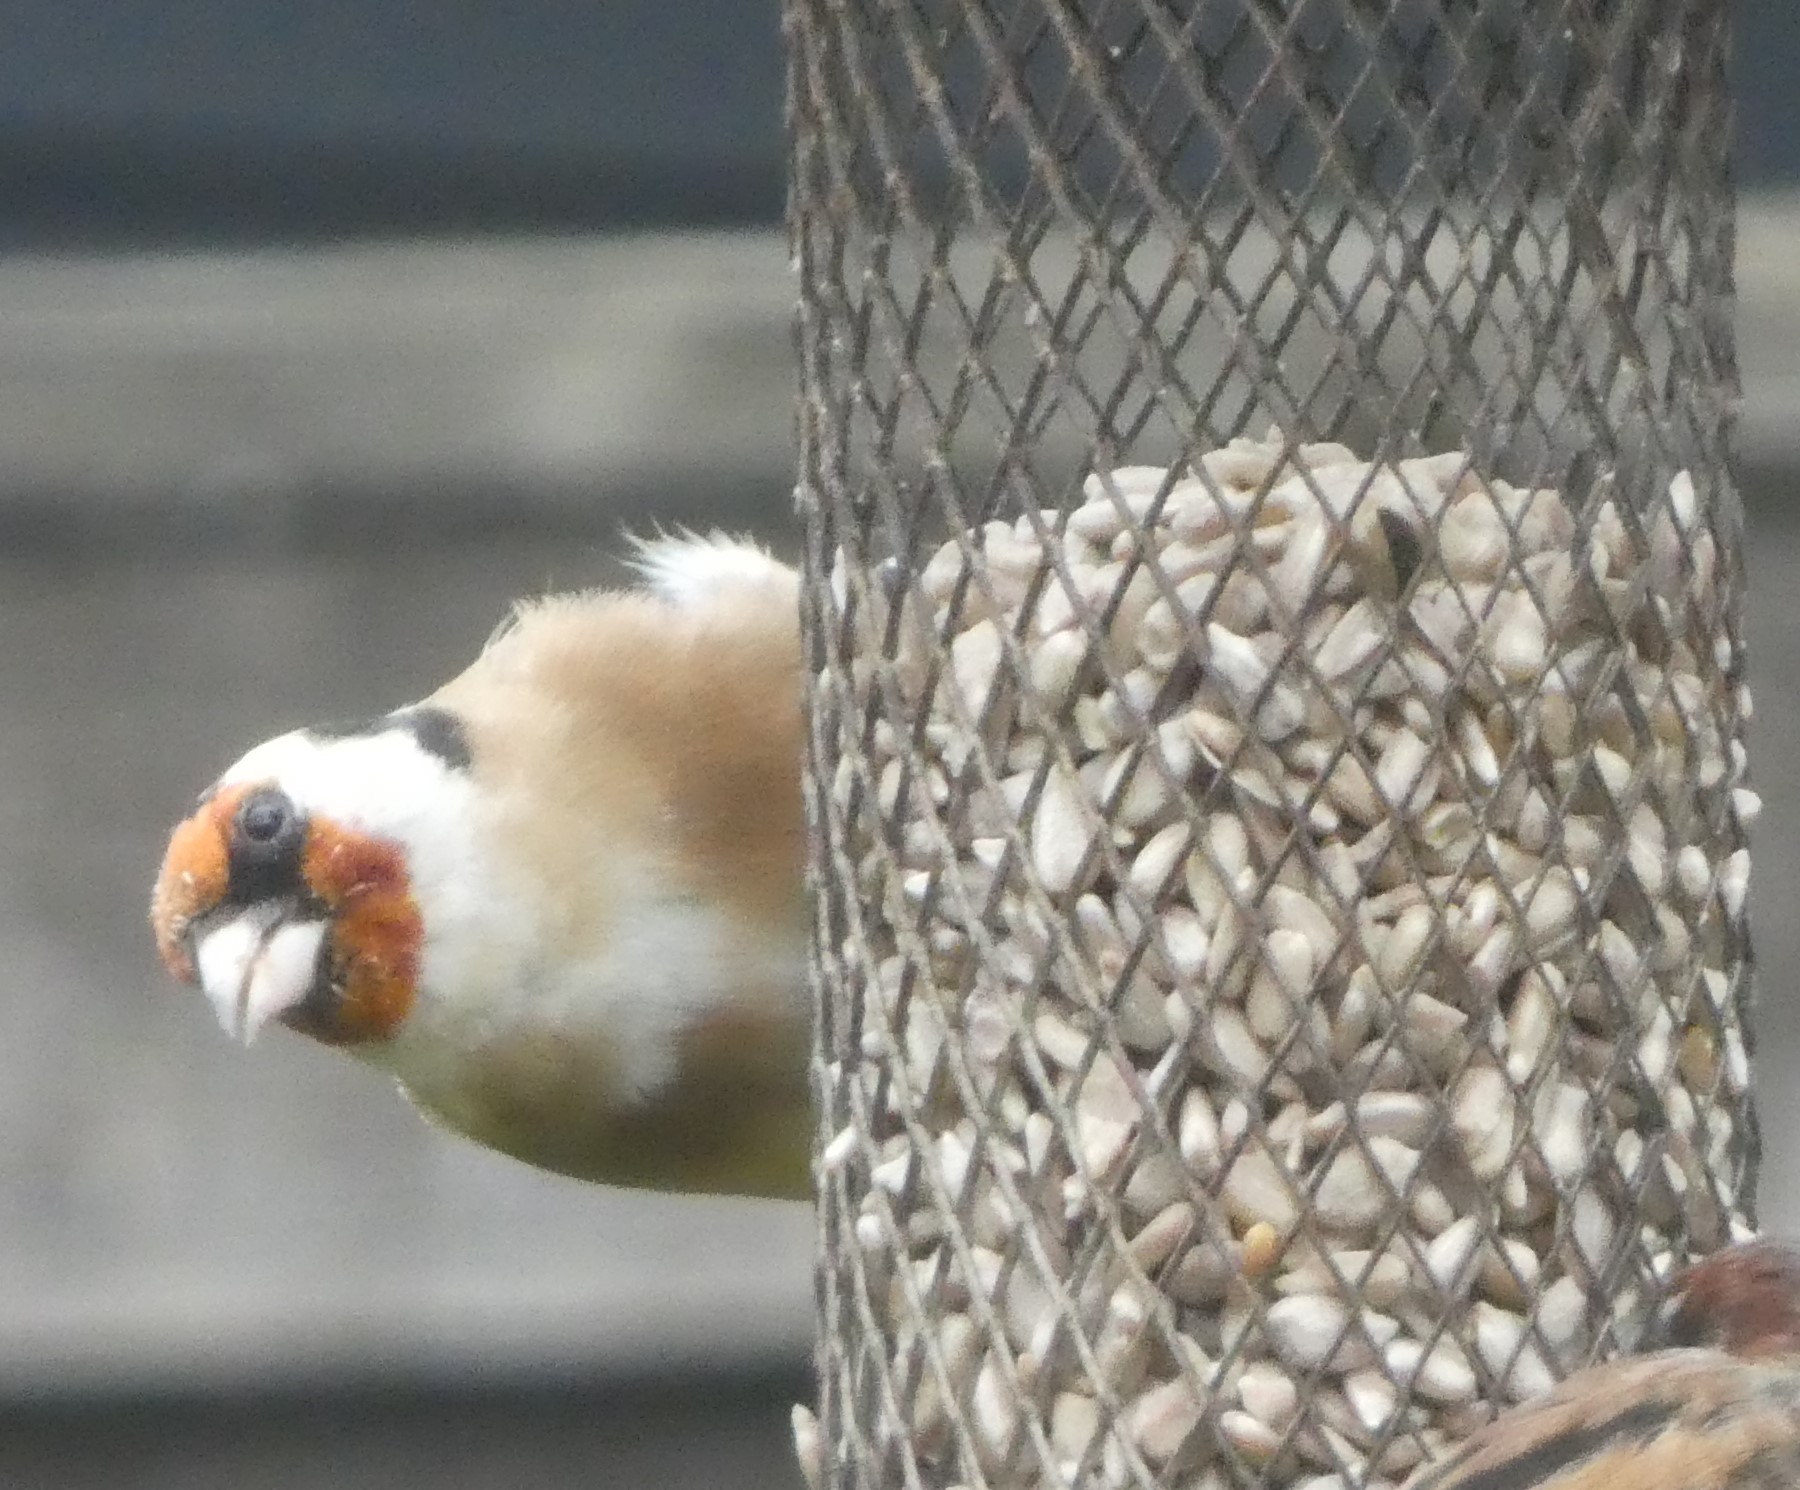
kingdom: Animalia
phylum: Chordata
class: Aves
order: Passeriformes
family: Fringillidae
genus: Carduelis
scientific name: Carduelis carduelis
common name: European goldfinch
